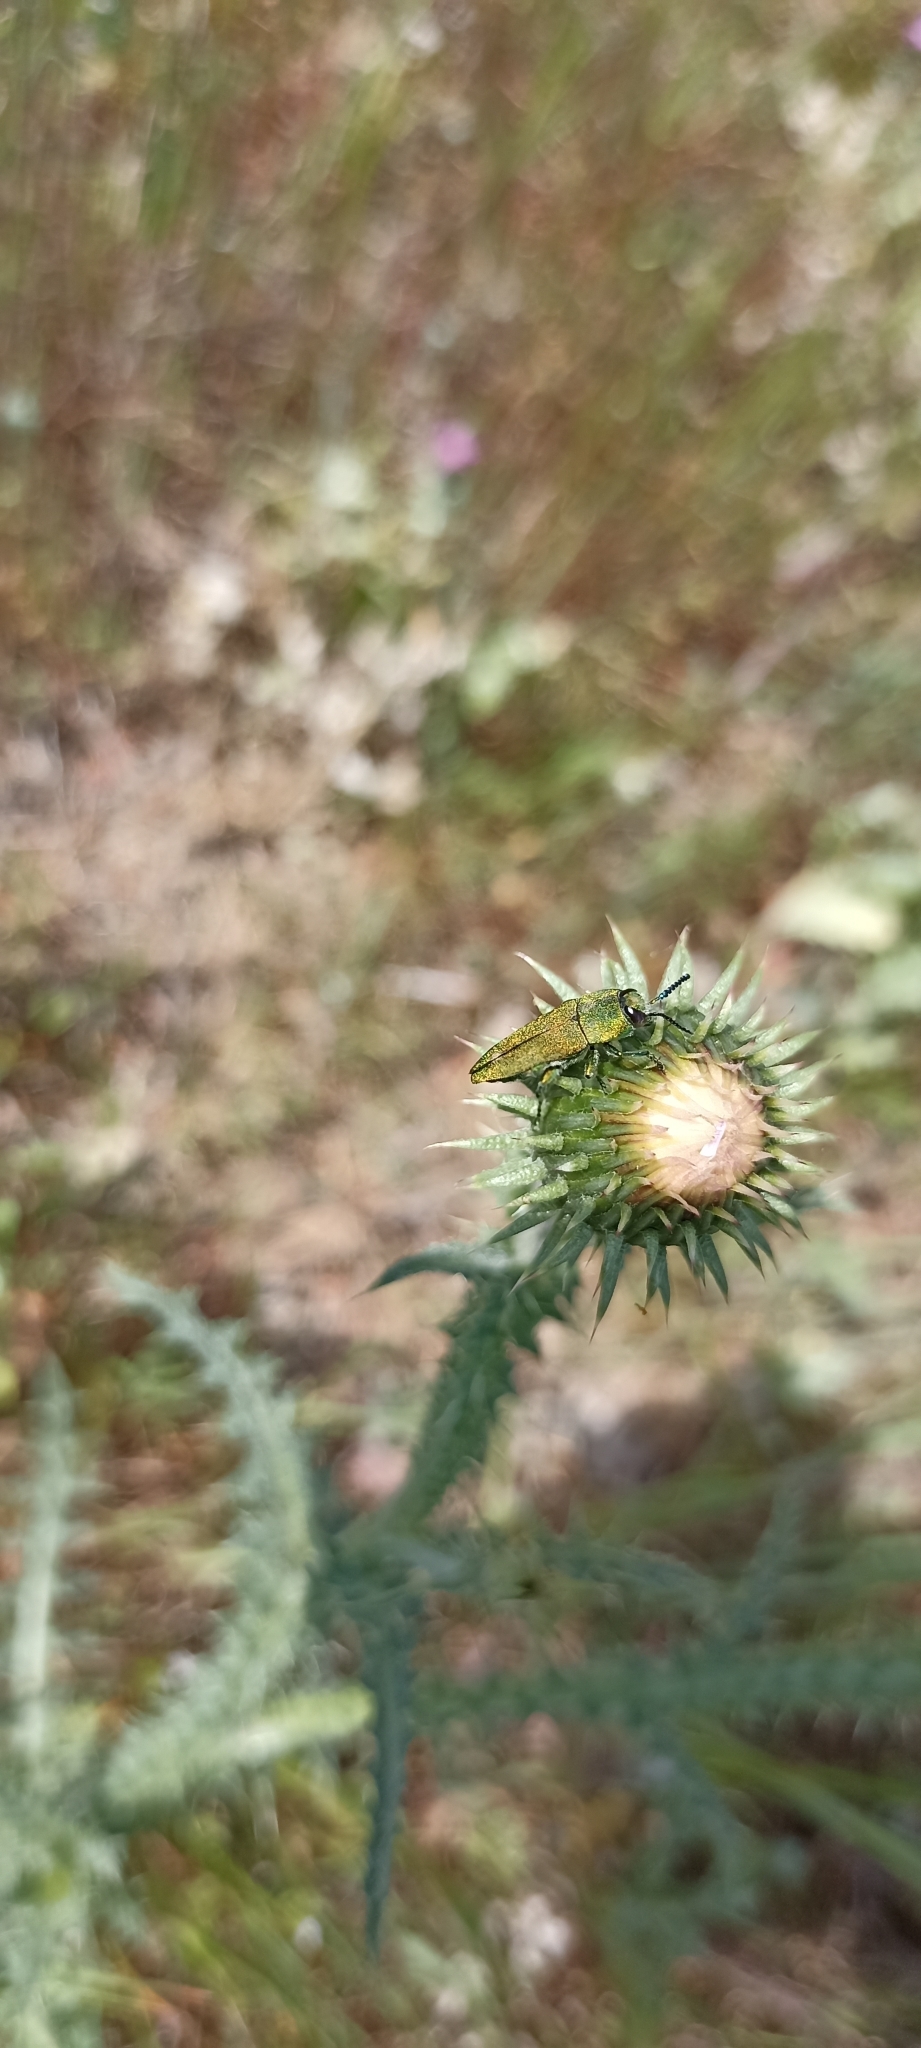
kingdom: Animalia
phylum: Arthropoda
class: Insecta
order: Coleoptera
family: Buprestidae
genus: Anthaxia
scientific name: Anthaxia hungarica
